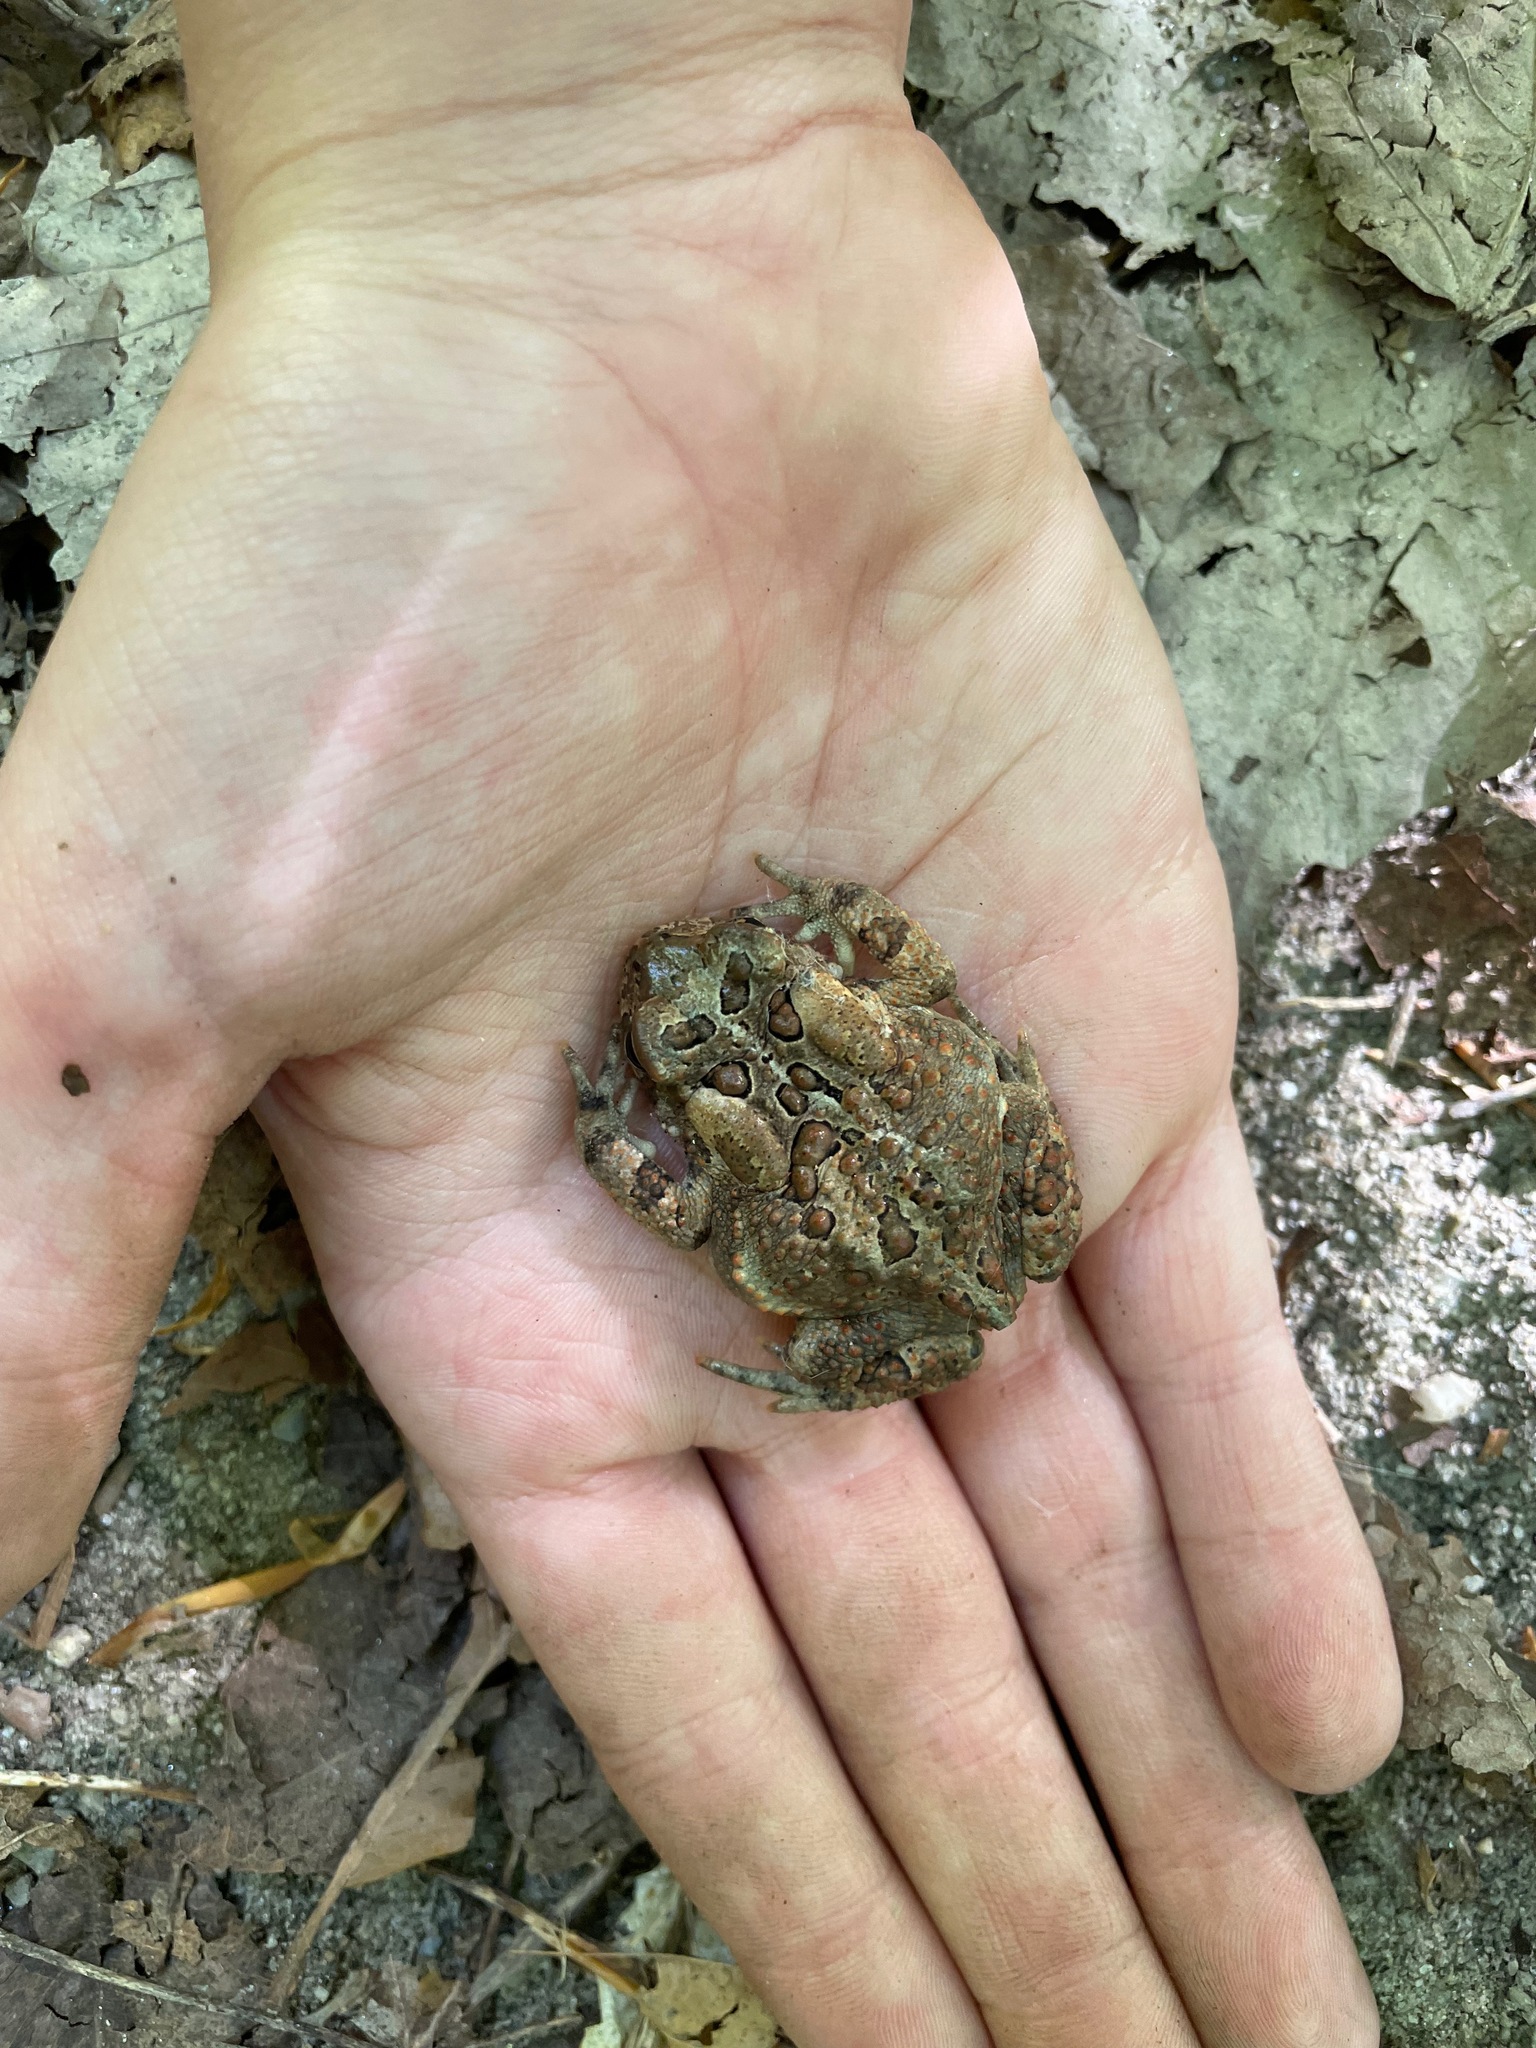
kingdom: Animalia
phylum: Chordata
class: Amphibia
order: Anura
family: Bufonidae
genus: Anaxyrus
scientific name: Anaxyrus americanus
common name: American toad
